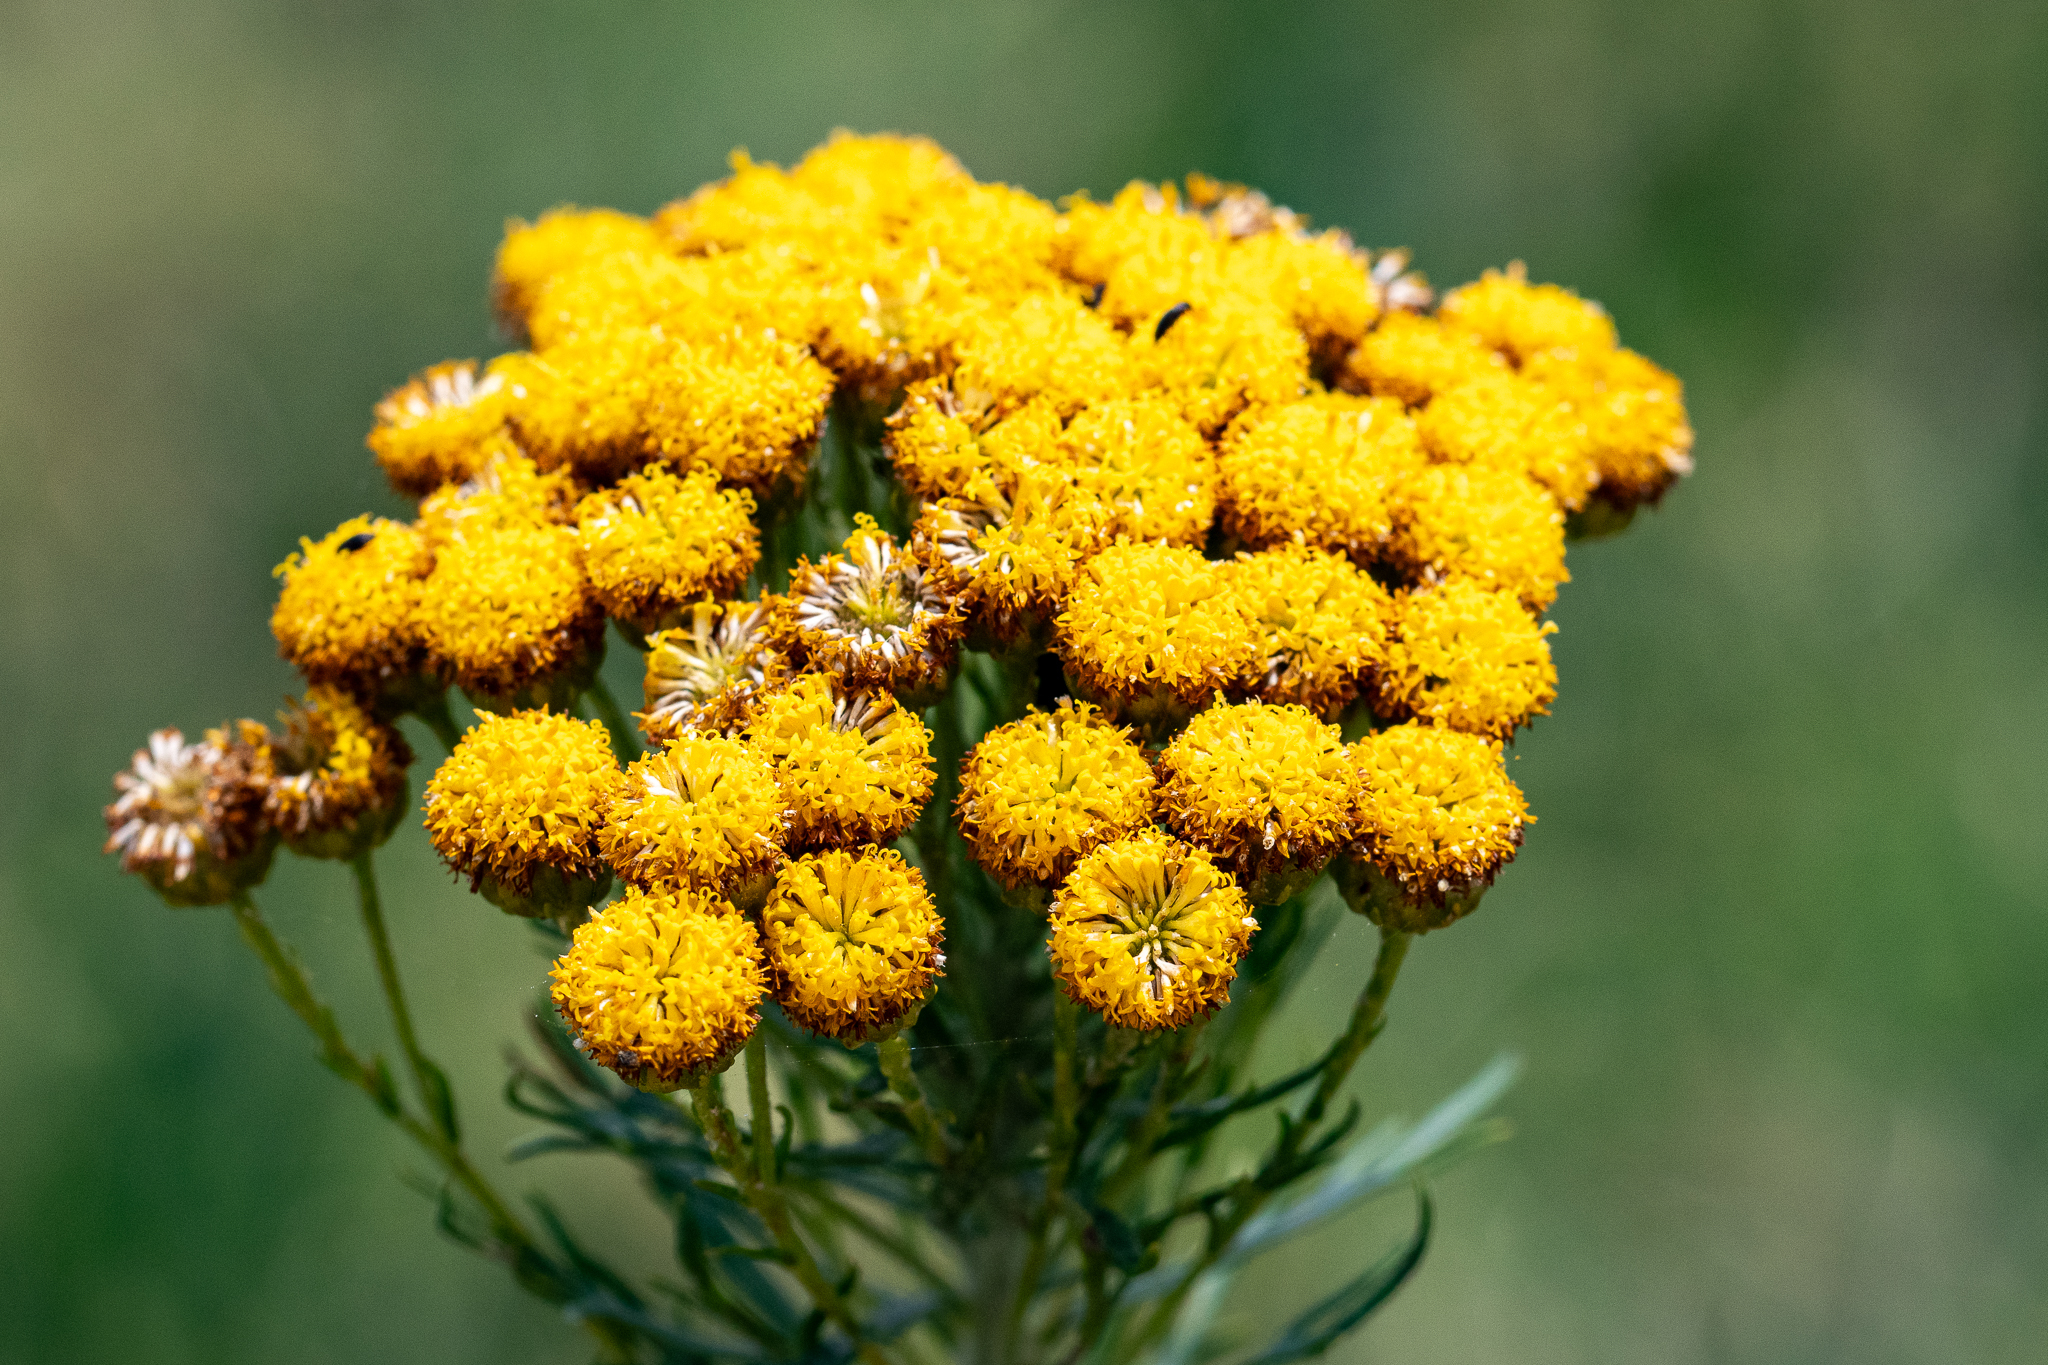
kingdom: Plantae
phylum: Tracheophyta
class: Magnoliopsida
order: Asterales
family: Asteraceae
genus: Athanasia
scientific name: Athanasia crithmifolia
